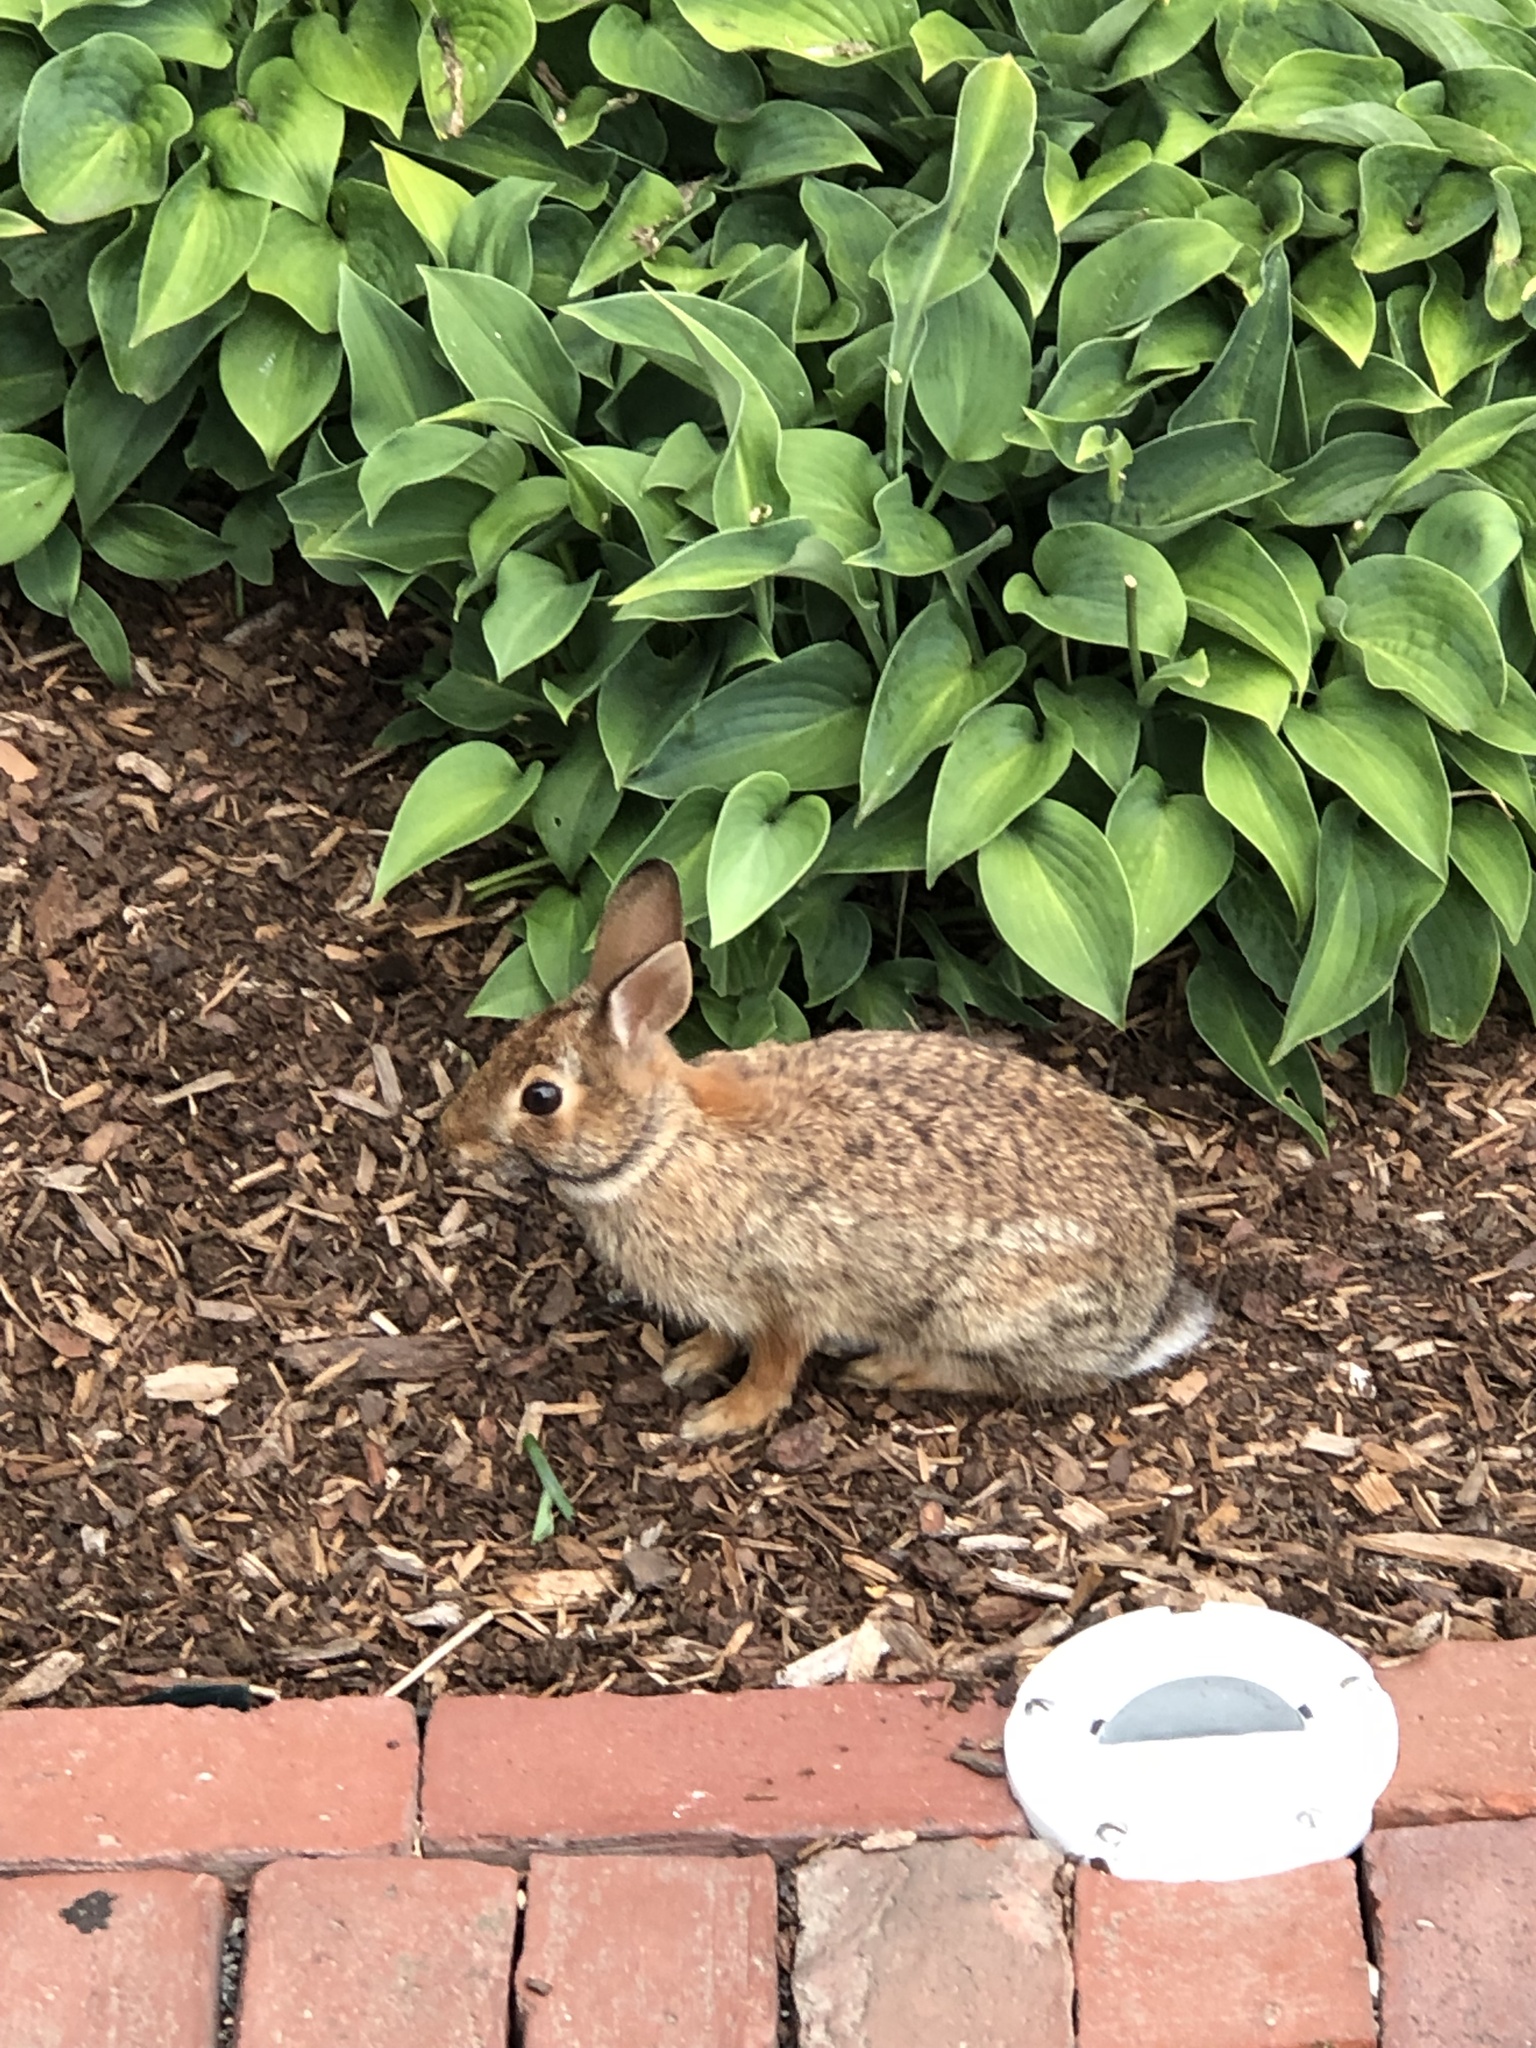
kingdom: Animalia
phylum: Chordata
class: Mammalia
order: Lagomorpha
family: Leporidae
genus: Sylvilagus
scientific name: Sylvilagus floridanus
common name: Eastern cottontail
